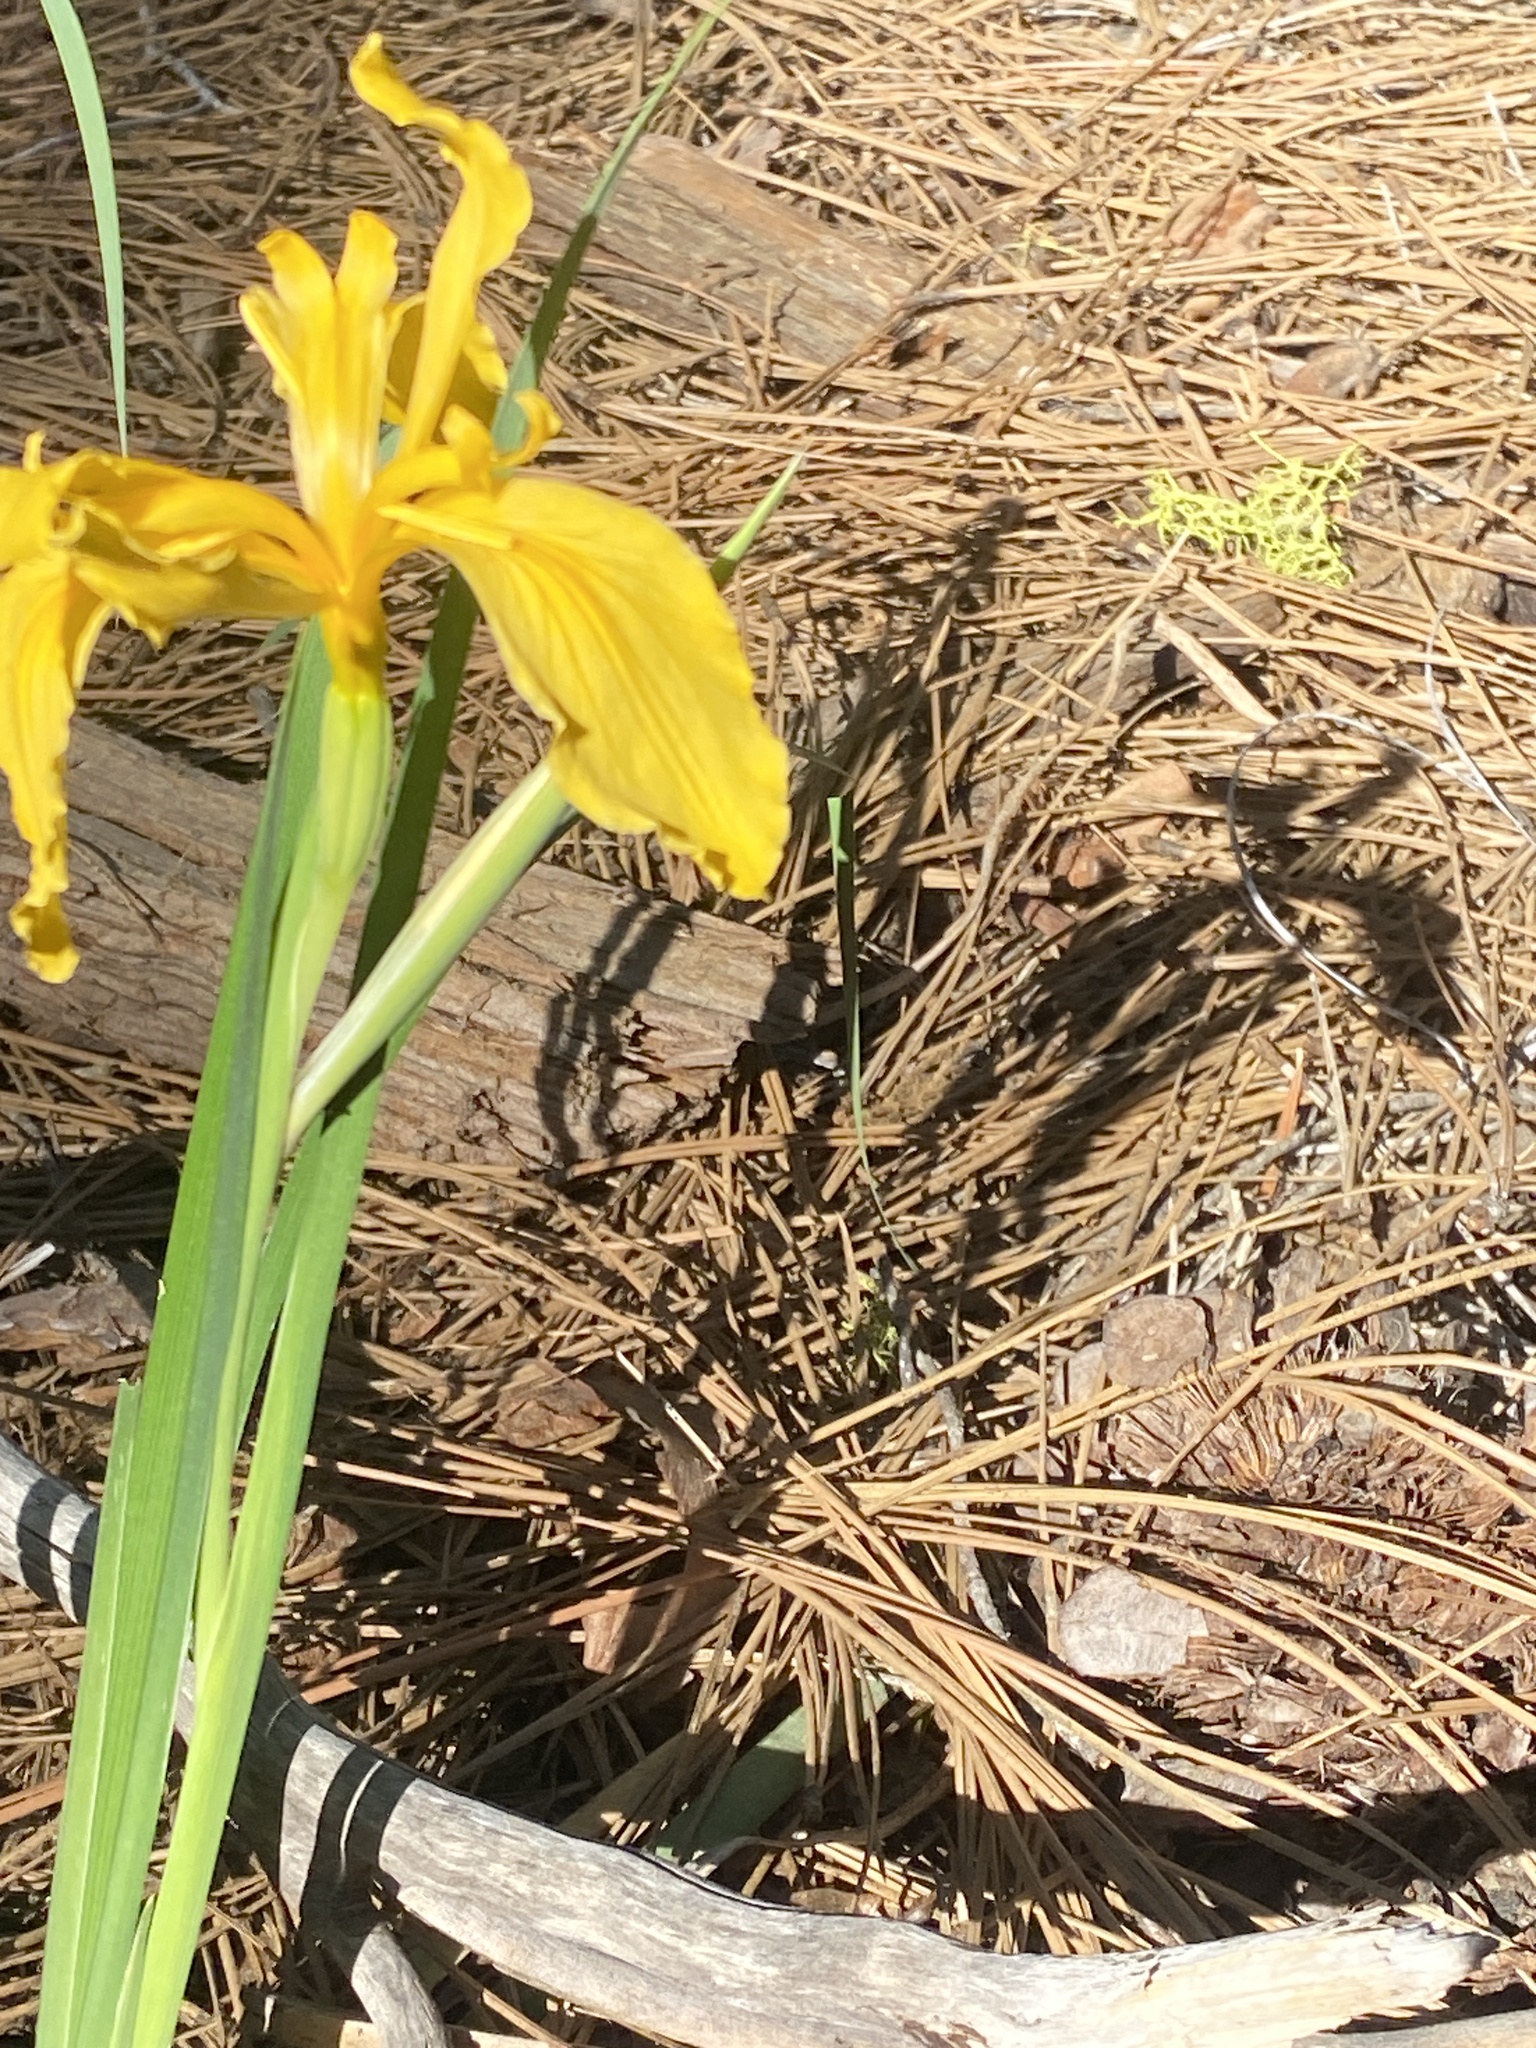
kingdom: Plantae
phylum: Tracheophyta
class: Liliopsida
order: Asparagales
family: Iridaceae
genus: Iris
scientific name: Iris hartwegii
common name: Sierra iris
